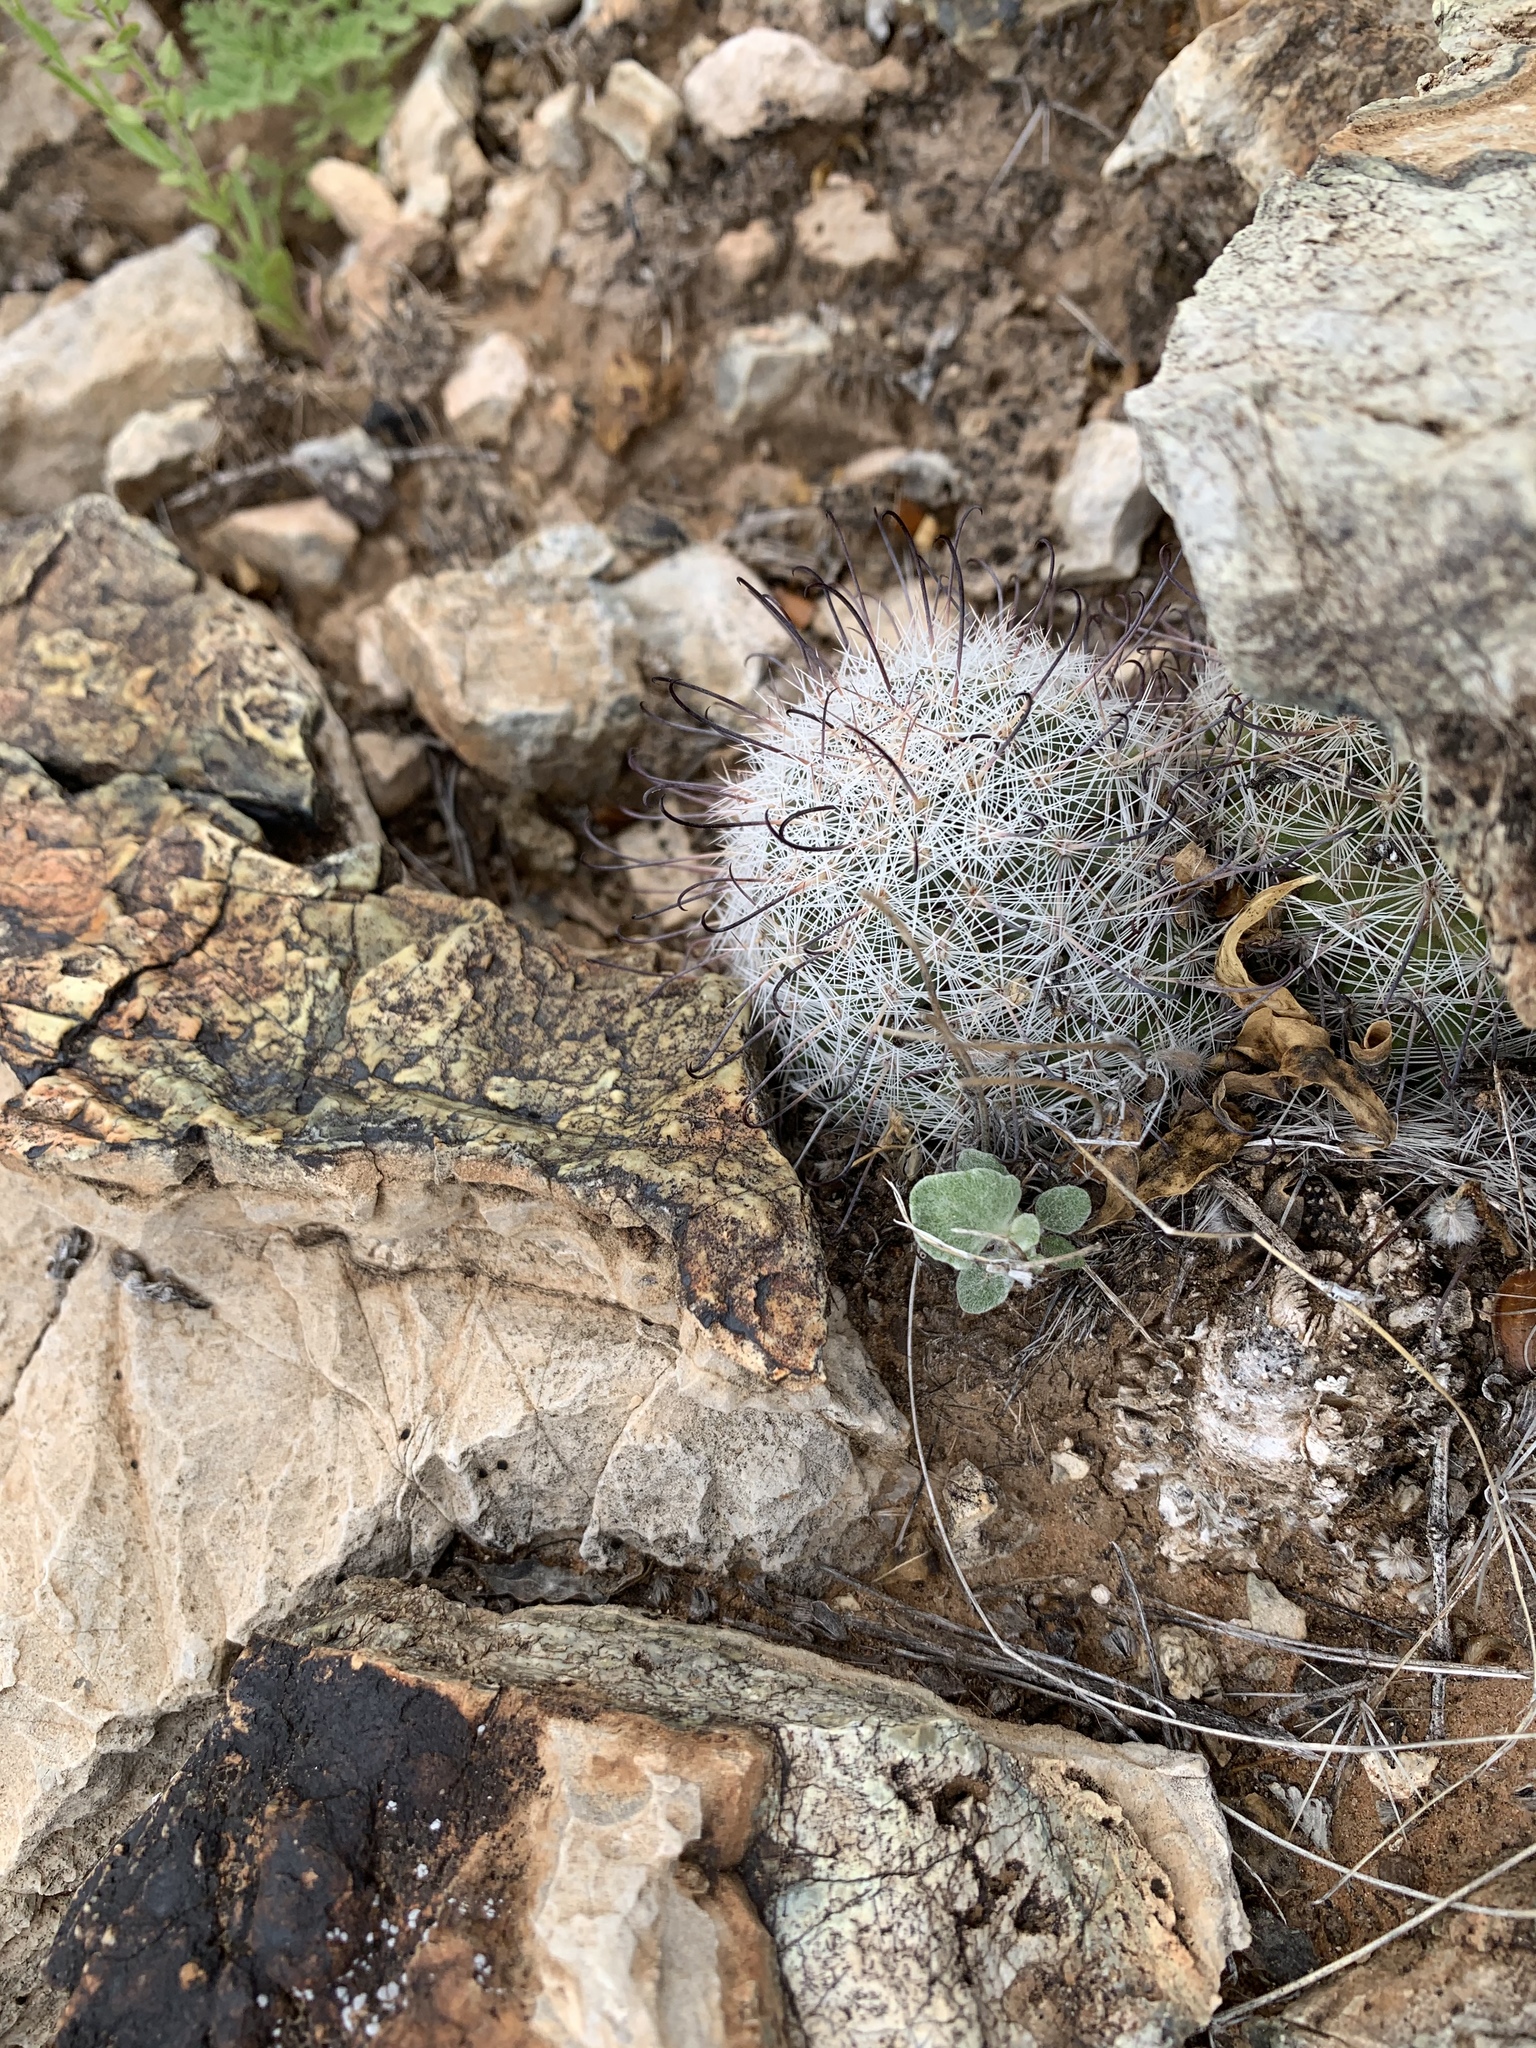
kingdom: Plantae
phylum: Tracheophyta
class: Magnoliopsida
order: Caryophyllales
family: Cactaceae
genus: Cochemiea
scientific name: Cochemiea grahamii
